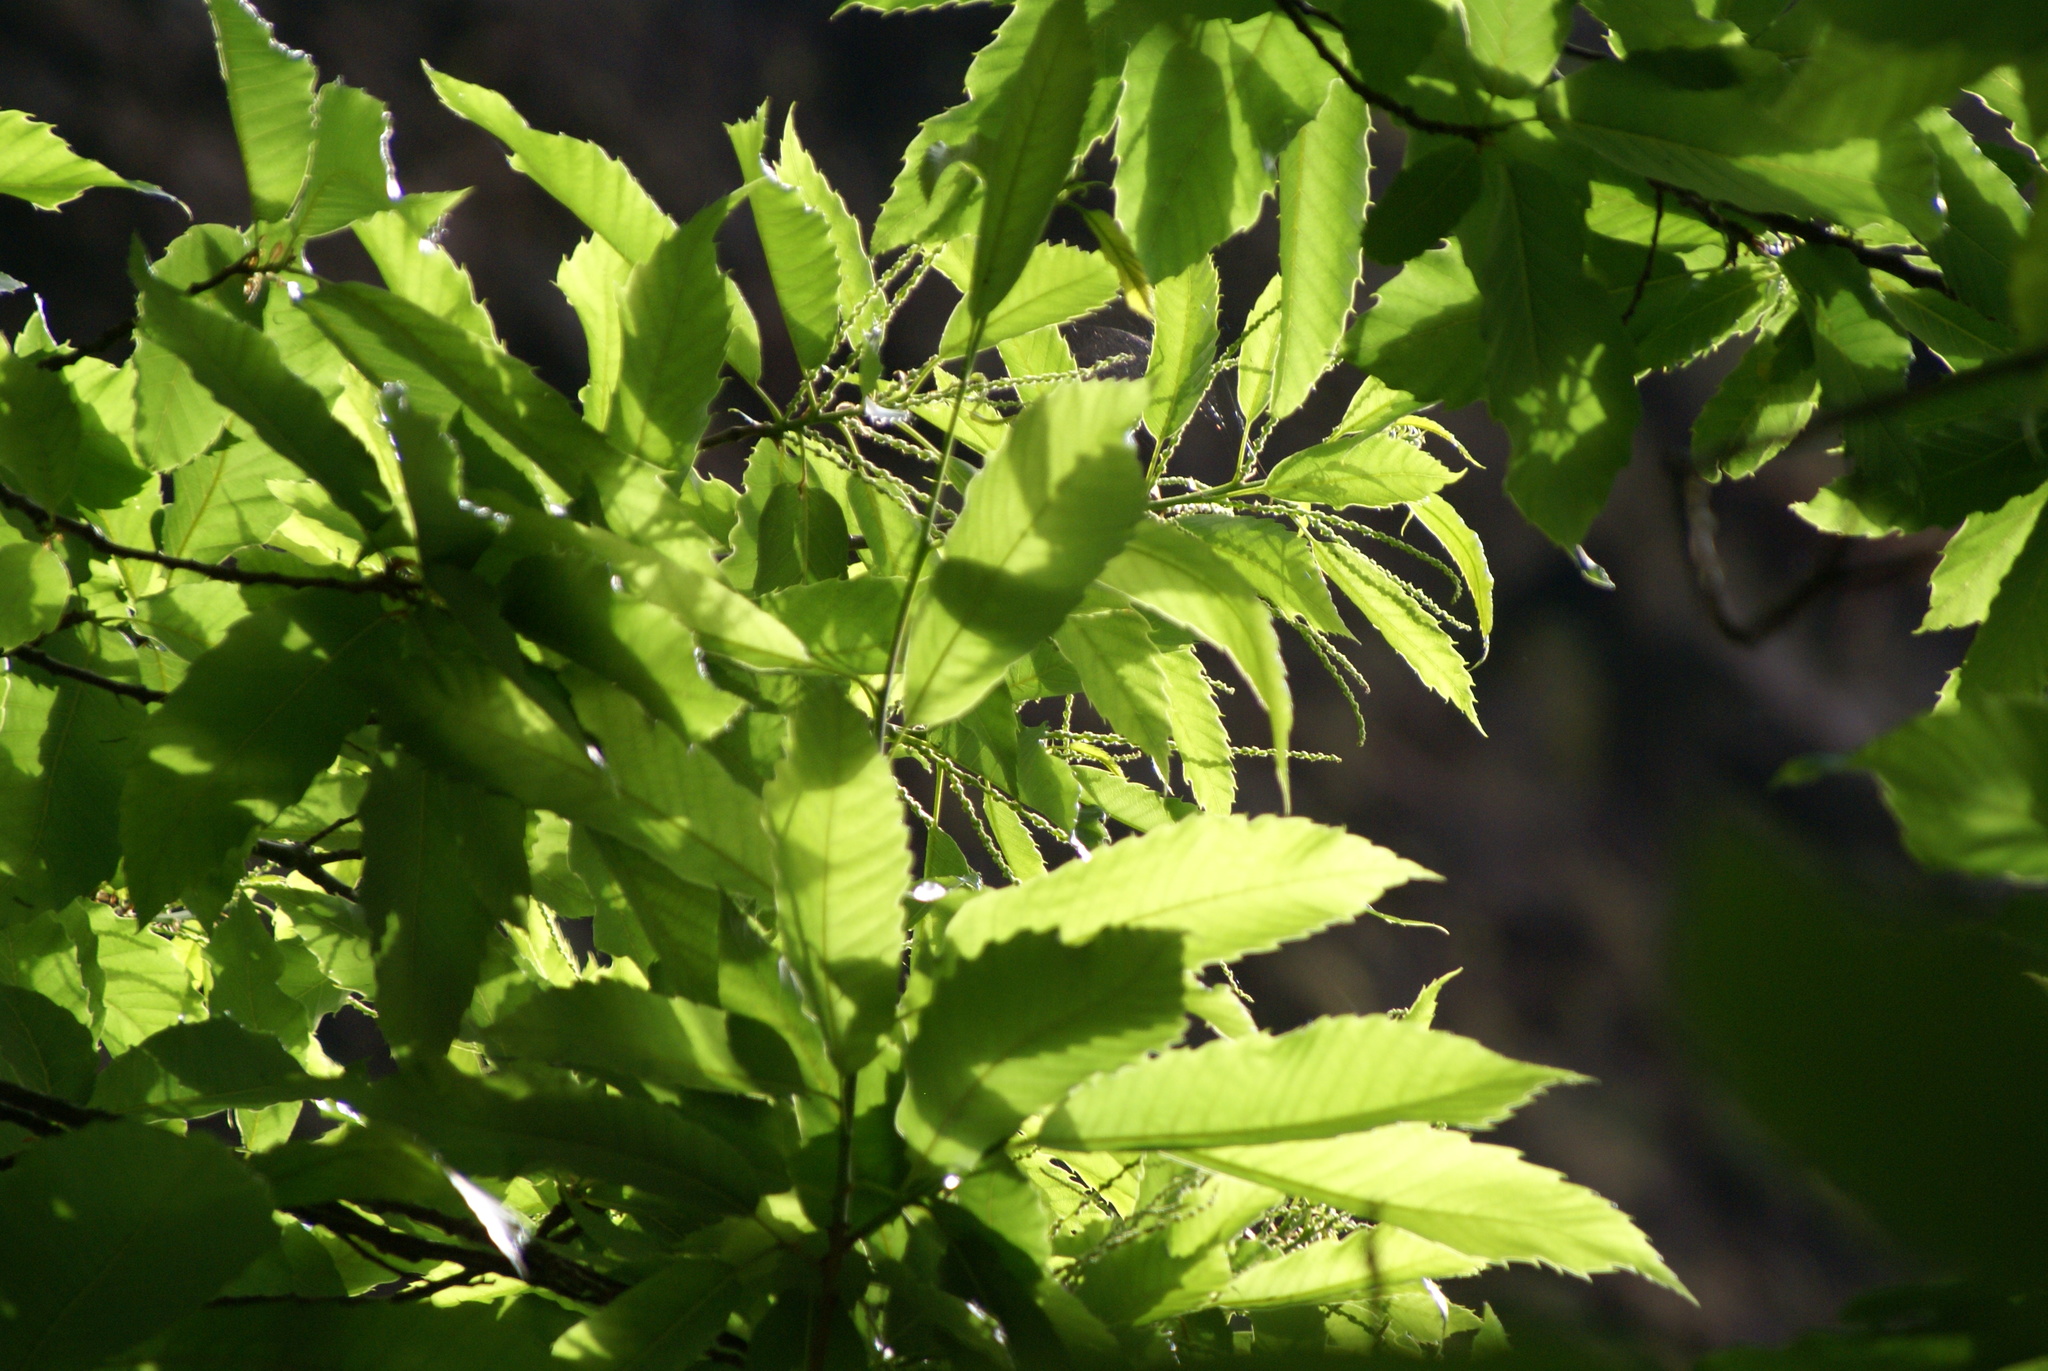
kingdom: Plantae
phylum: Tracheophyta
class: Magnoliopsida
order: Fagales
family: Fagaceae
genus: Castanea
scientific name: Castanea sativa
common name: Sweet chestnut
